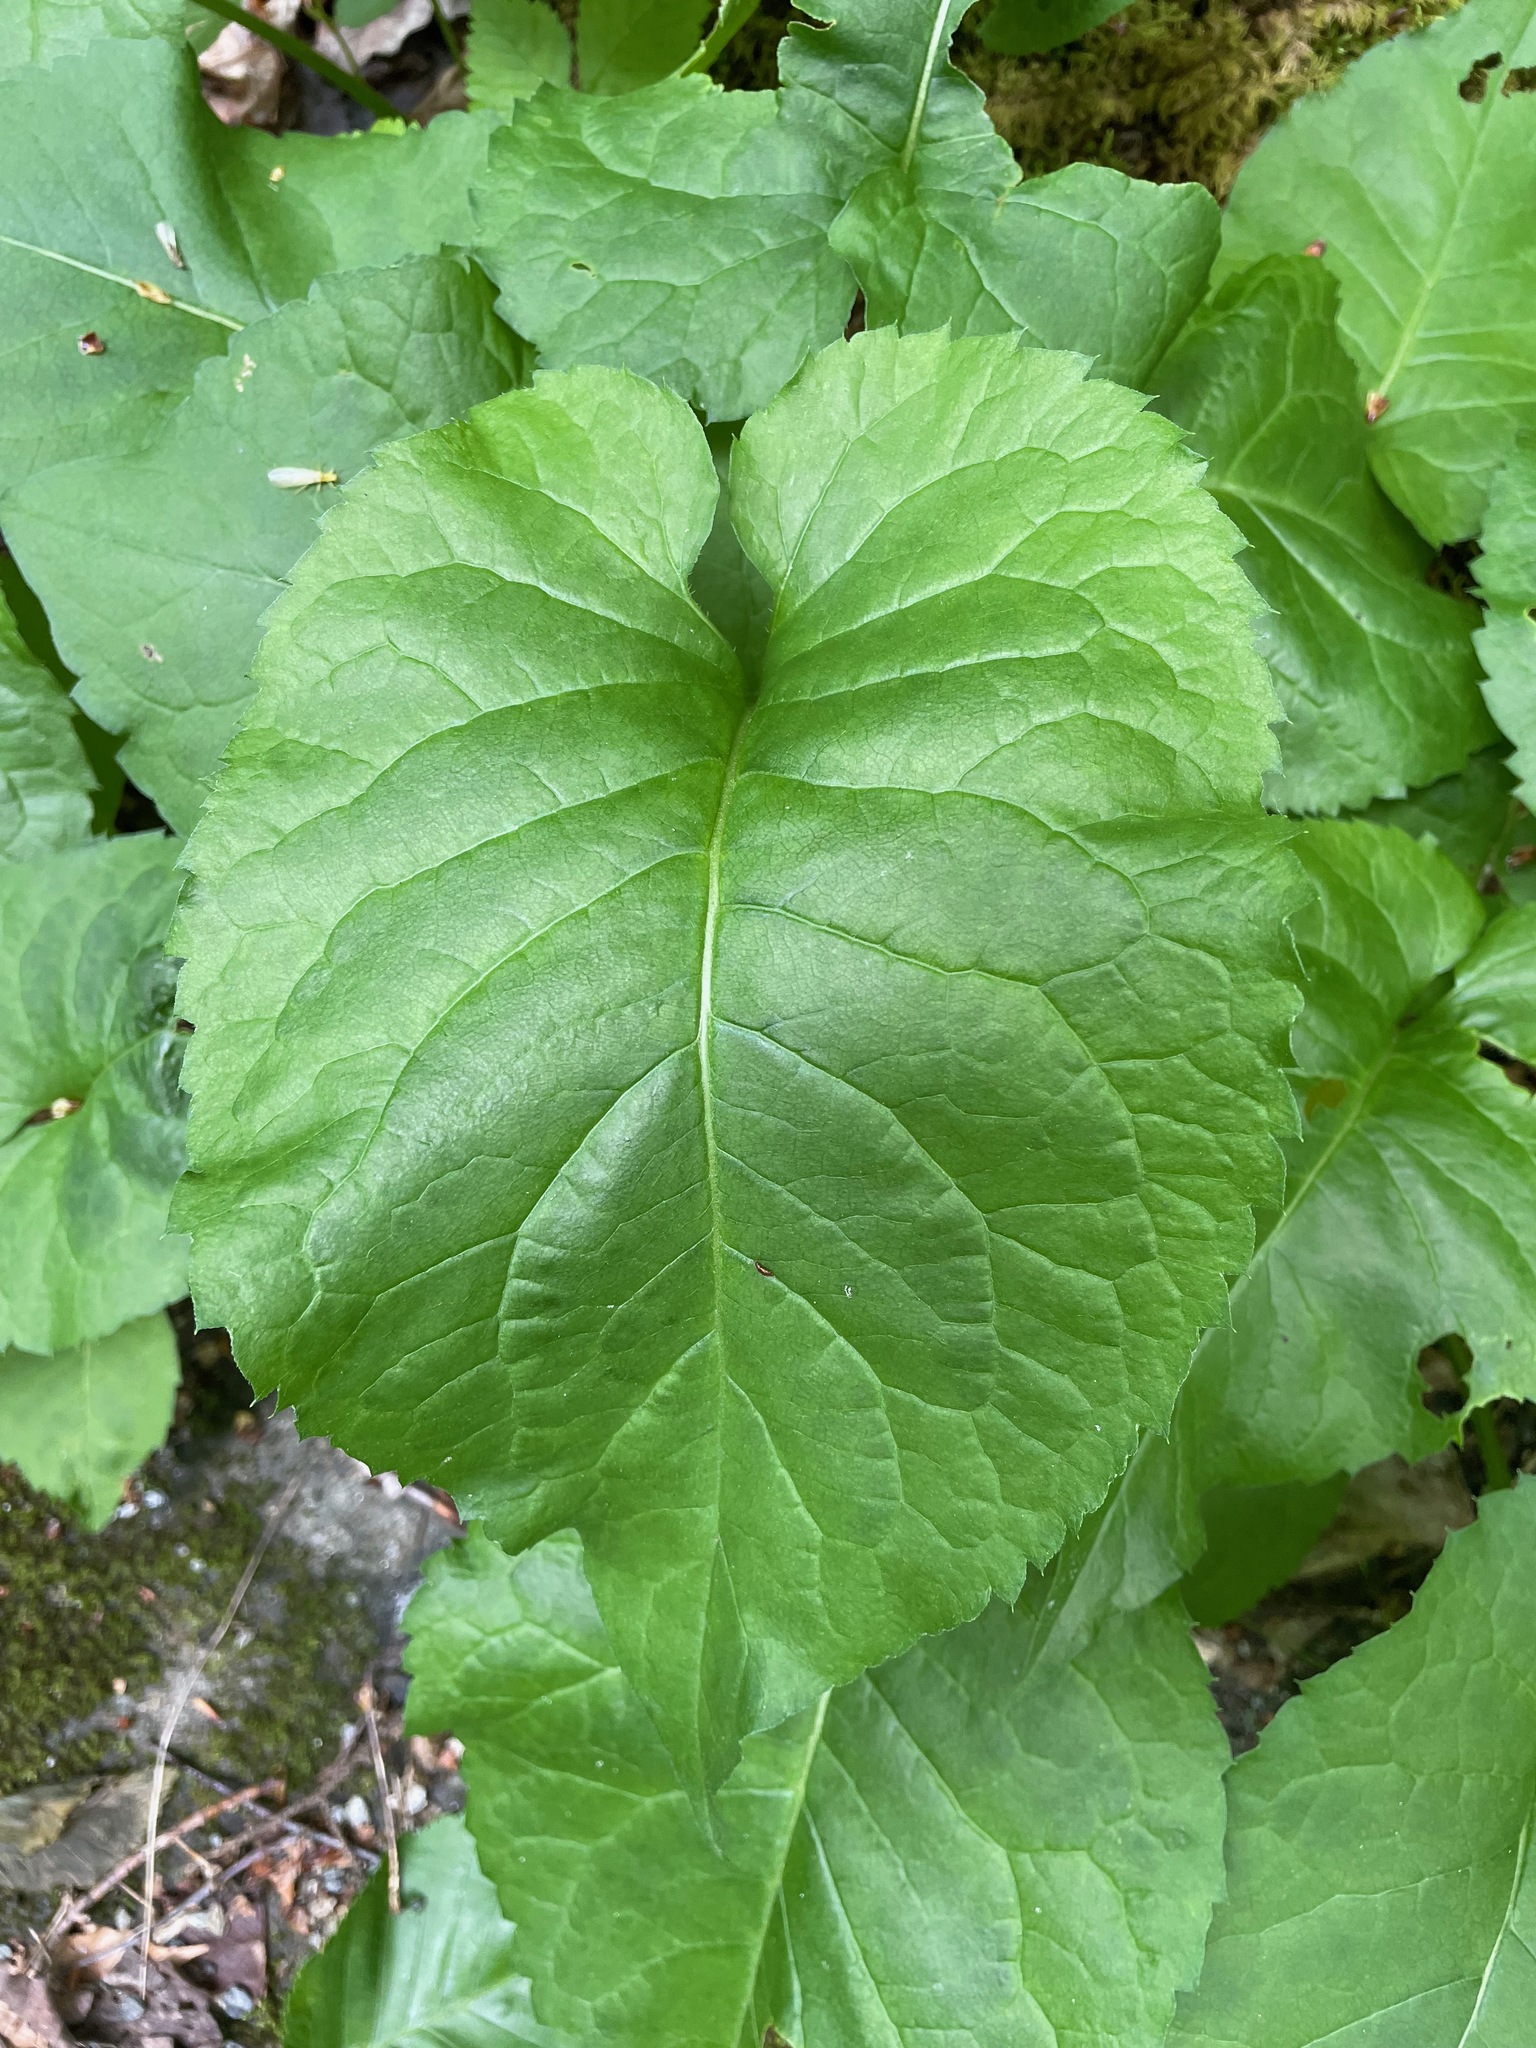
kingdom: Plantae
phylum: Tracheophyta
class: Magnoliopsida
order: Asterales
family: Asteraceae
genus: Eurybia
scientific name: Eurybia macrophylla
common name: Big-leaved aster
